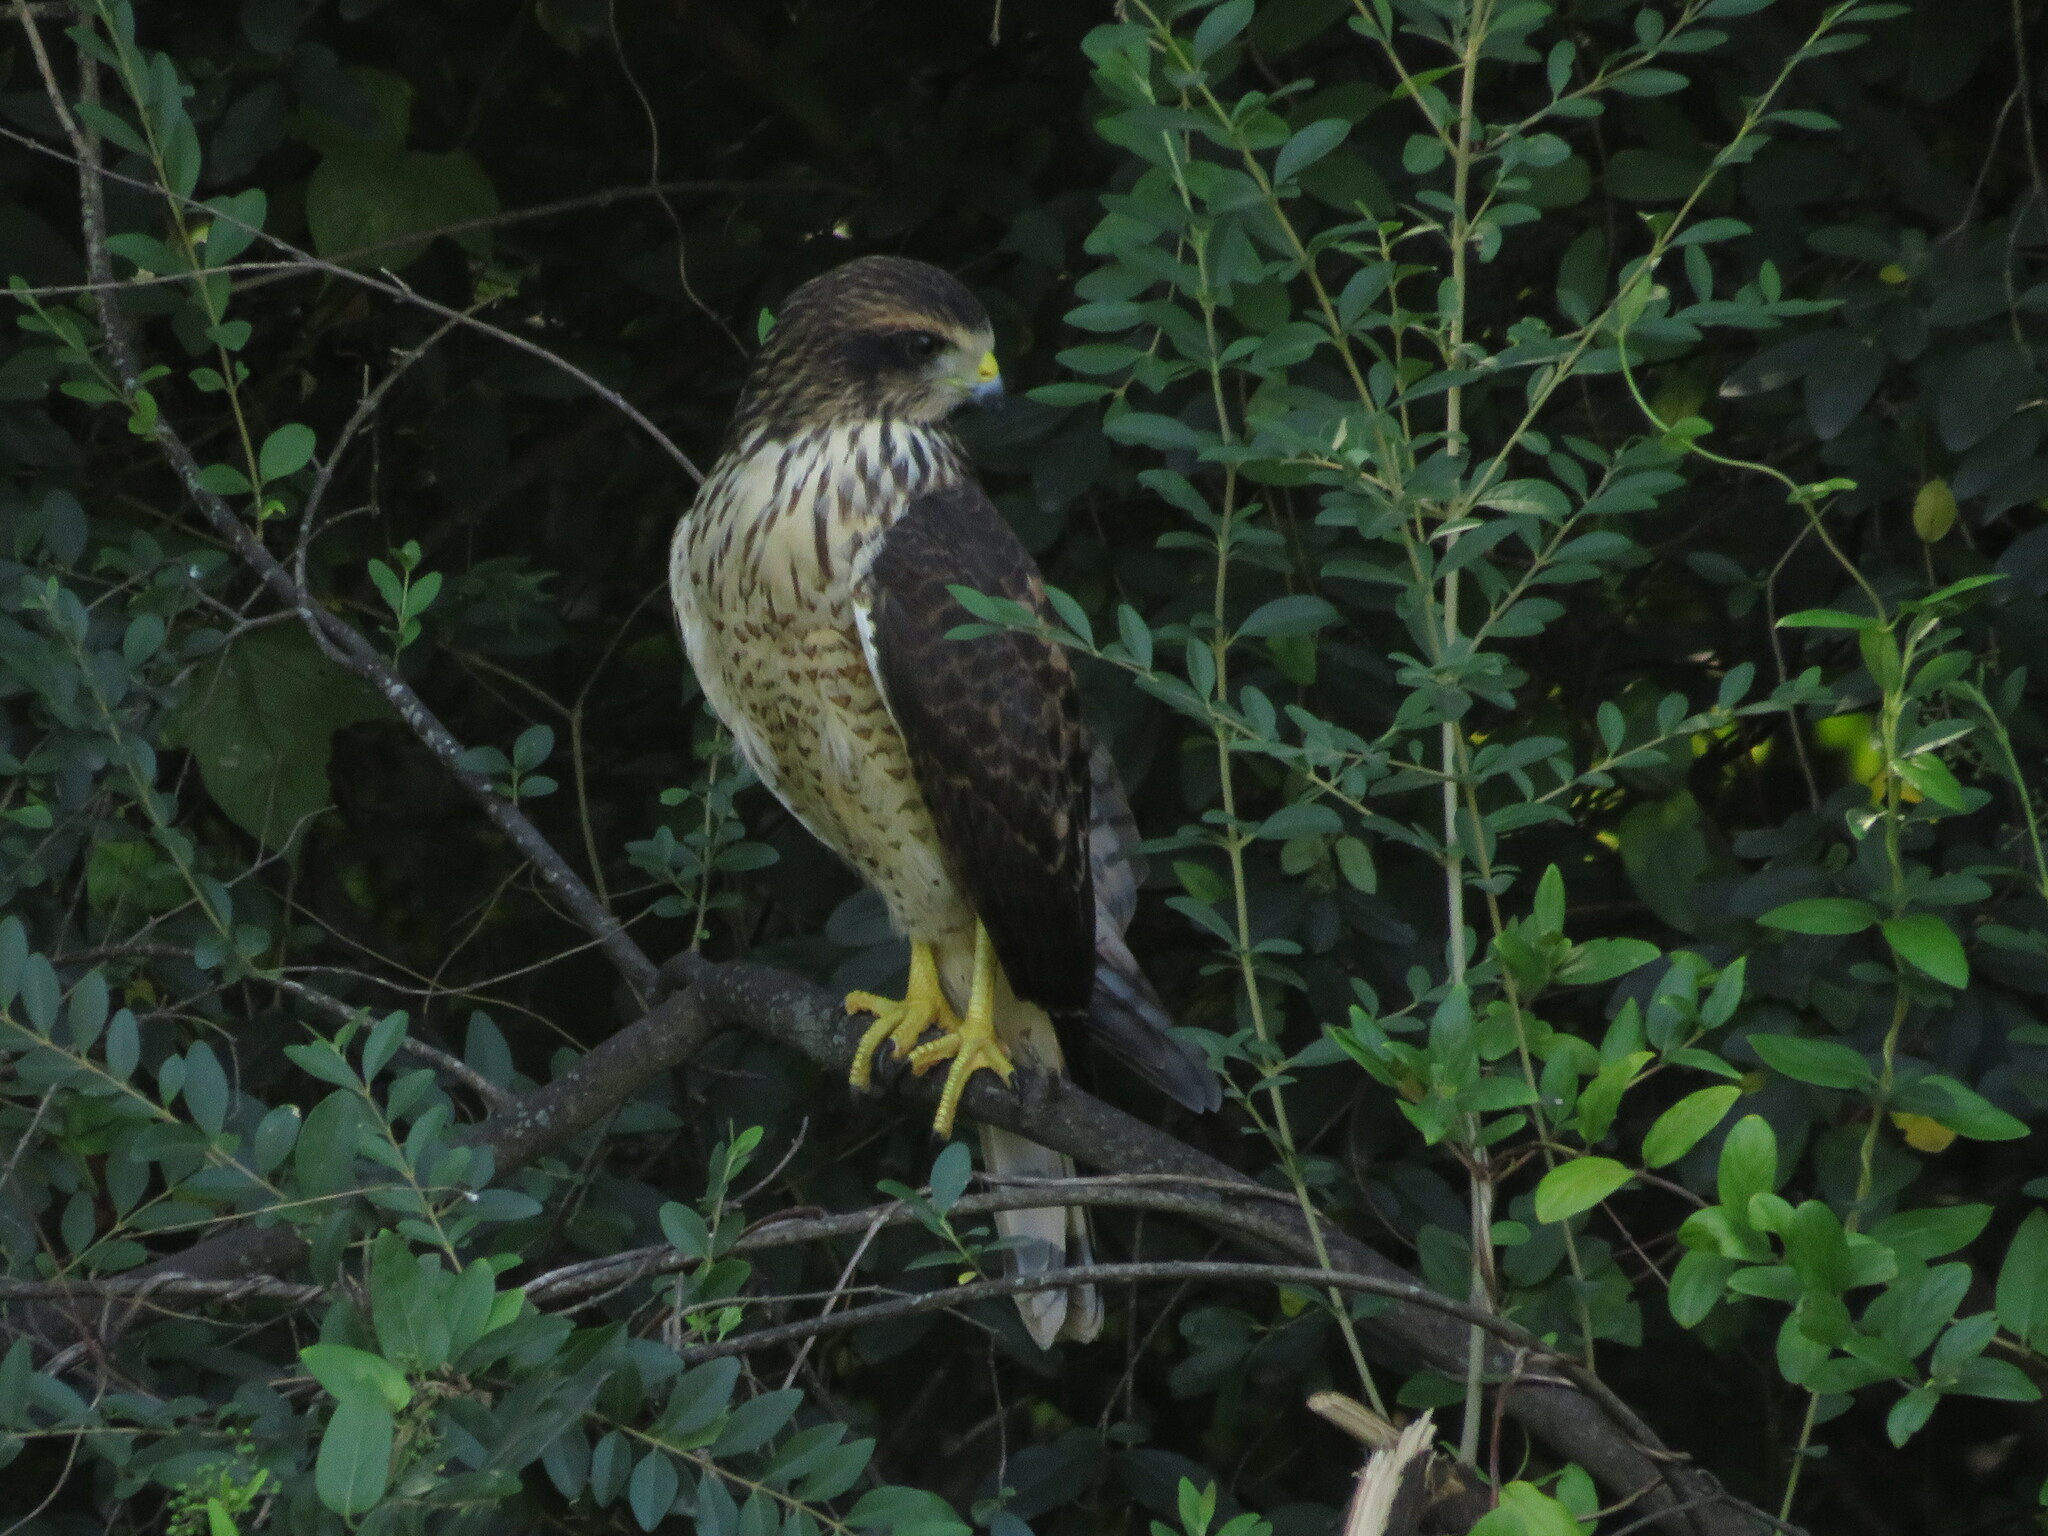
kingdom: Animalia
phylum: Chordata
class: Aves
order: Accipitriformes
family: Accipitridae
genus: Rupornis
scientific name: Rupornis magnirostris
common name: Roadside hawk
